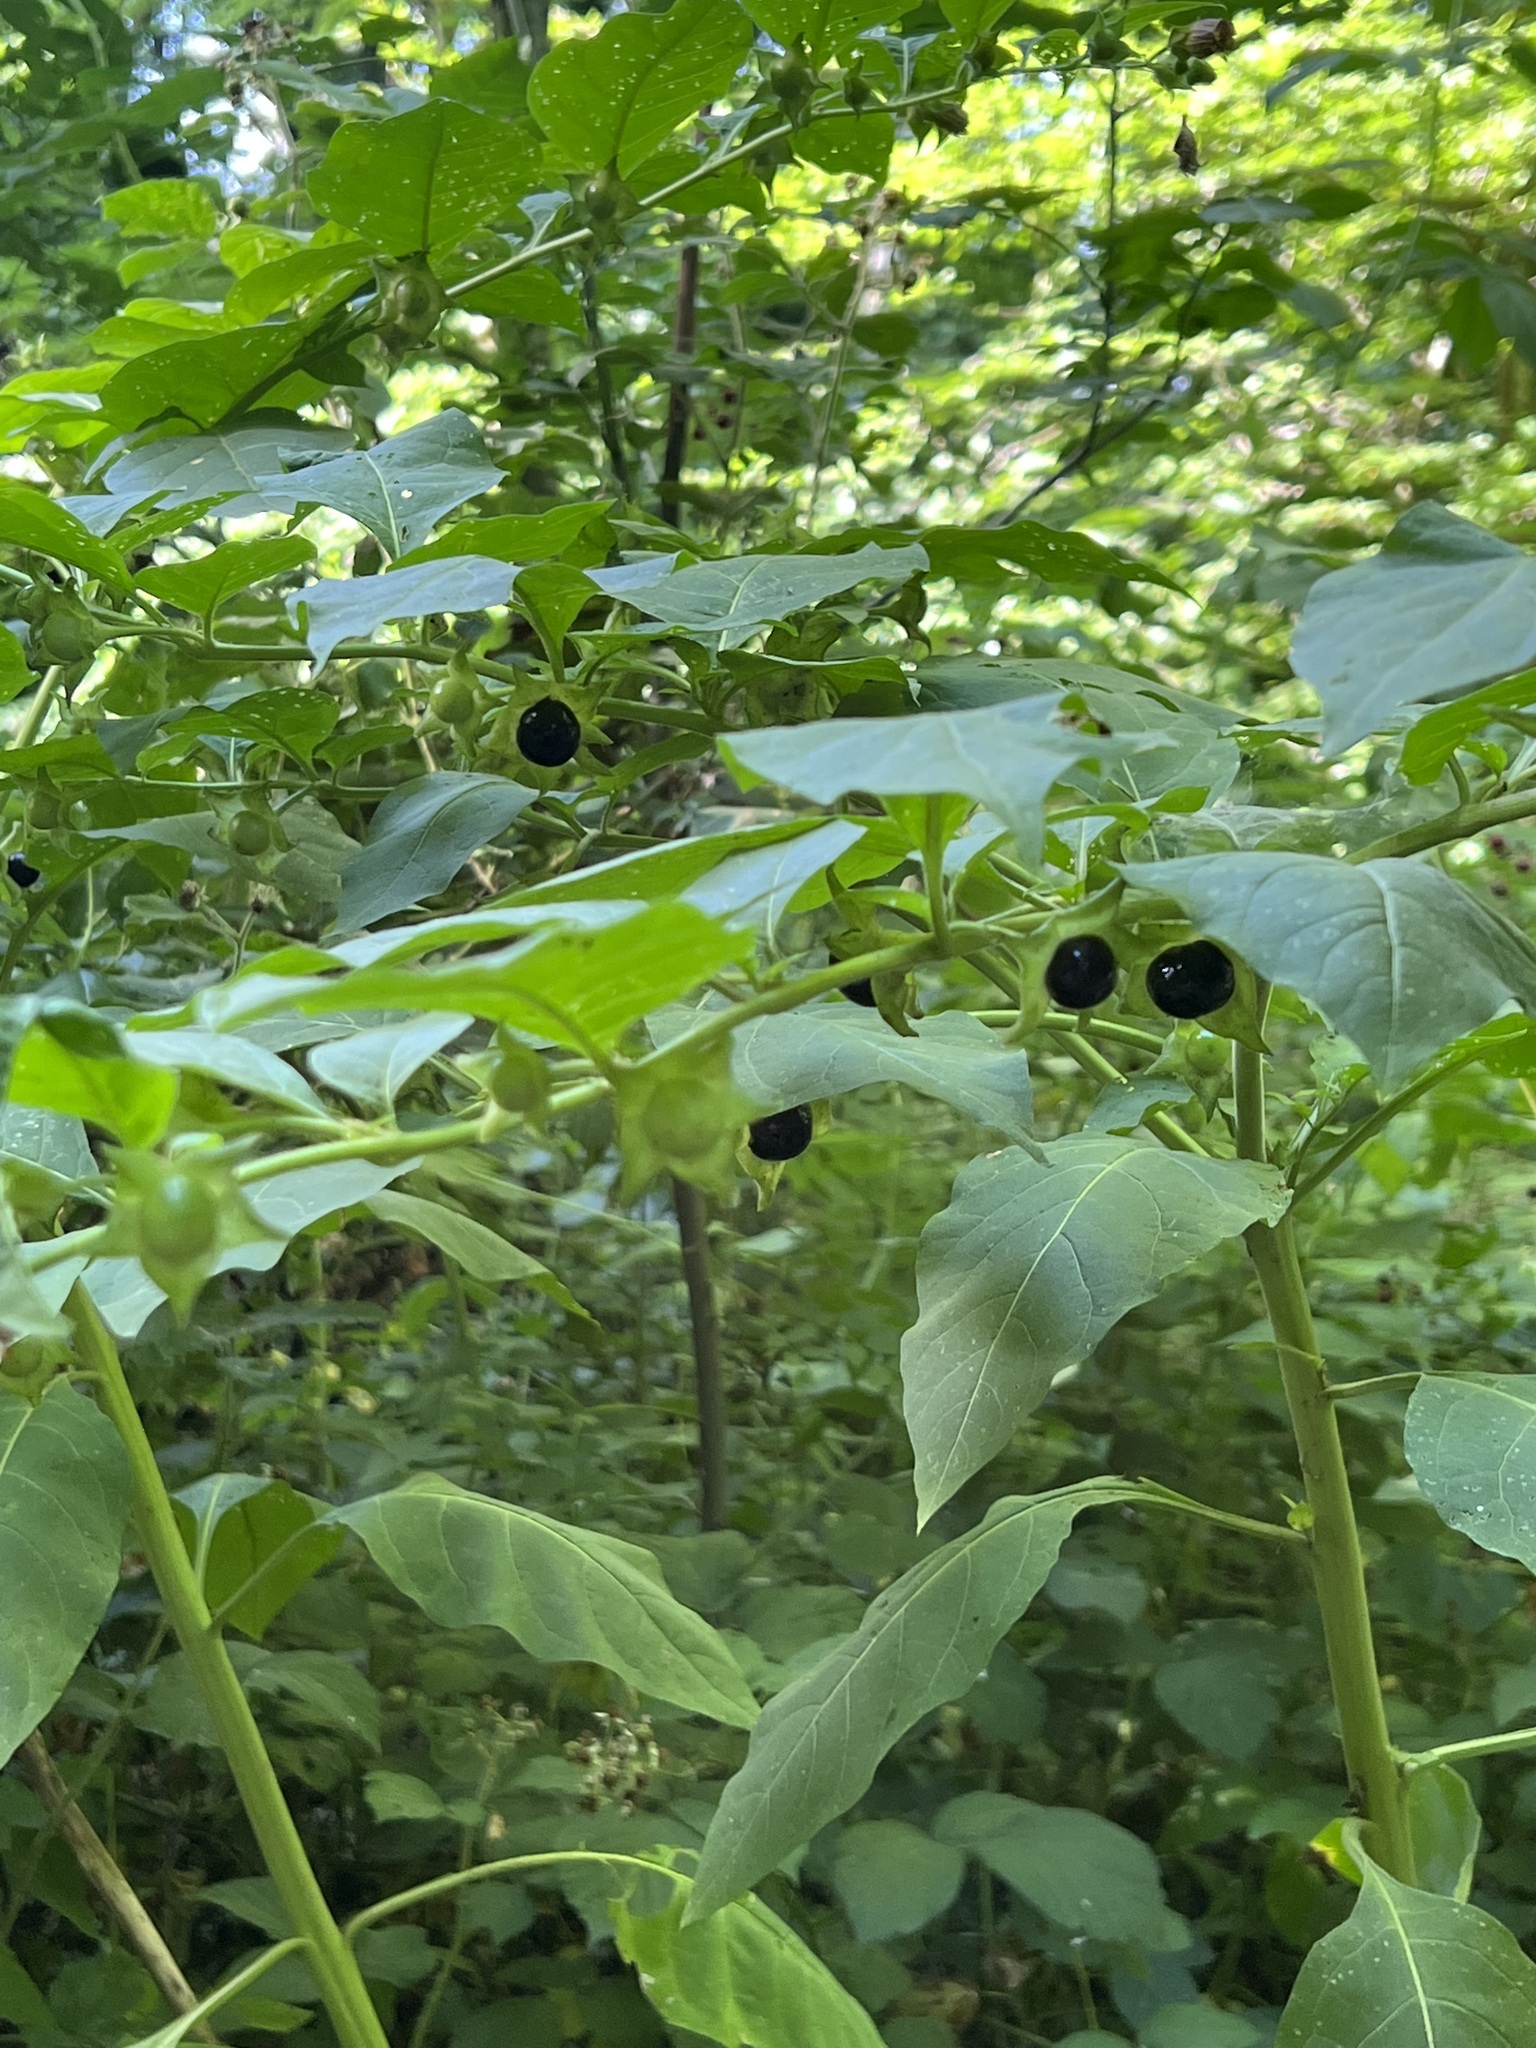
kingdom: Plantae
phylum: Tracheophyta
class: Magnoliopsida
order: Solanales
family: Solanaceae
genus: Atropa
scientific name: Atropa belladonna
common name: Deadly nightshade
